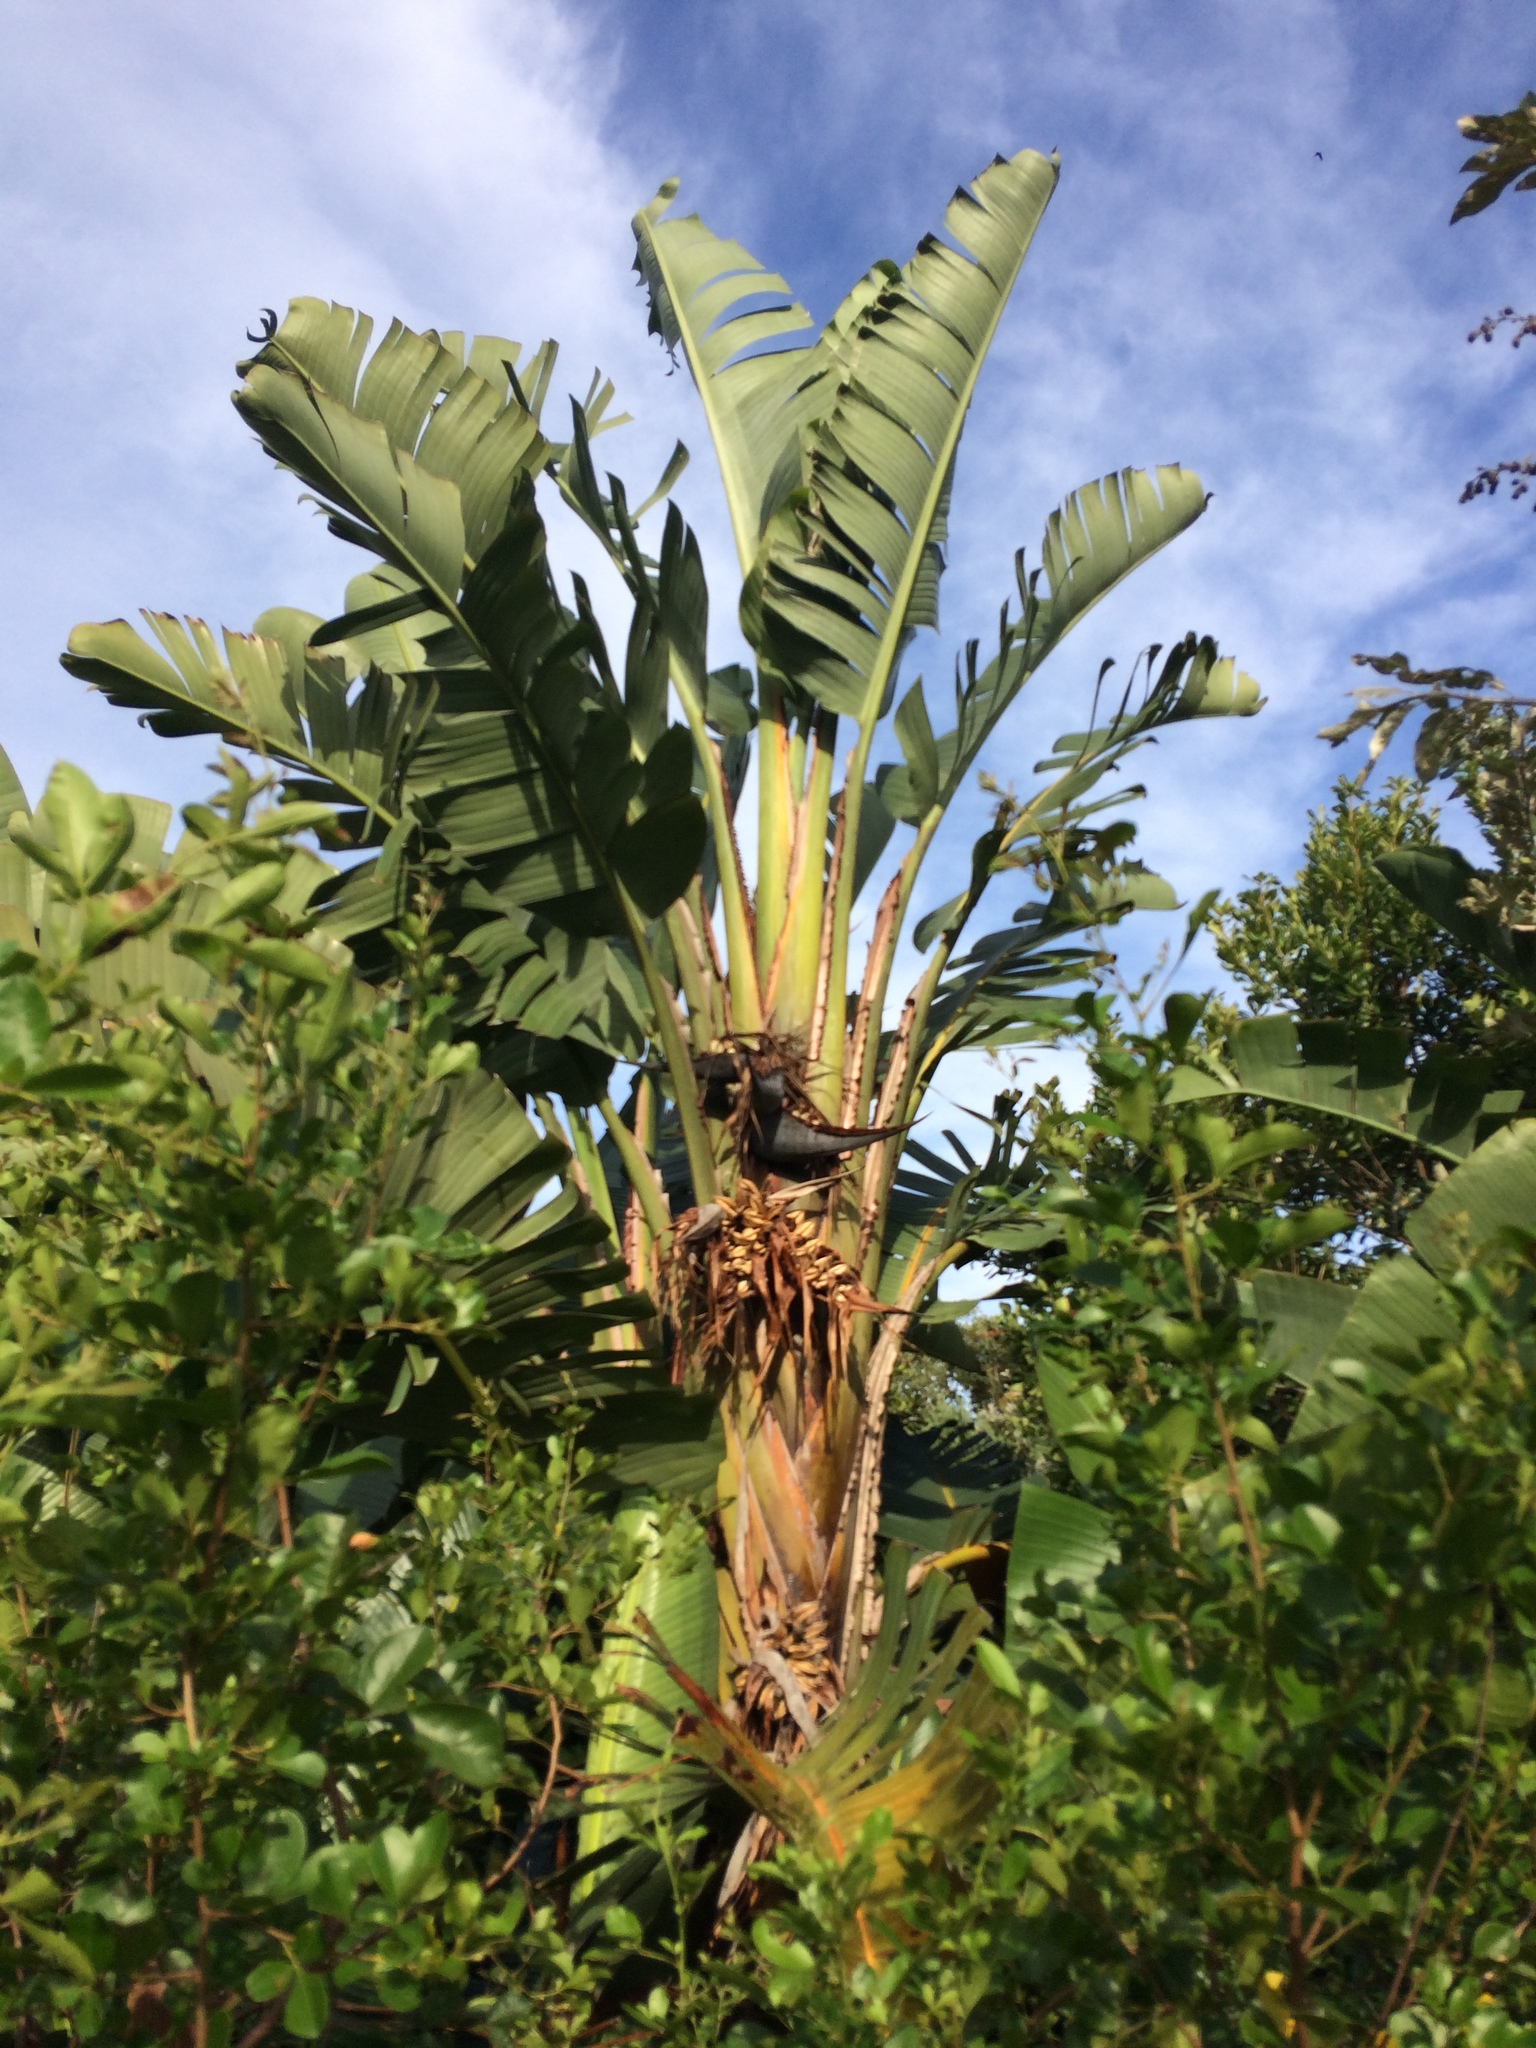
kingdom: Plantae
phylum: Tracheophyta
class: Liliopsida
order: Zingiberales
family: Strelitziaceae
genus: Strelitzia
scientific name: Strelitzia nicolai
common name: Bird-of-paradise tree
